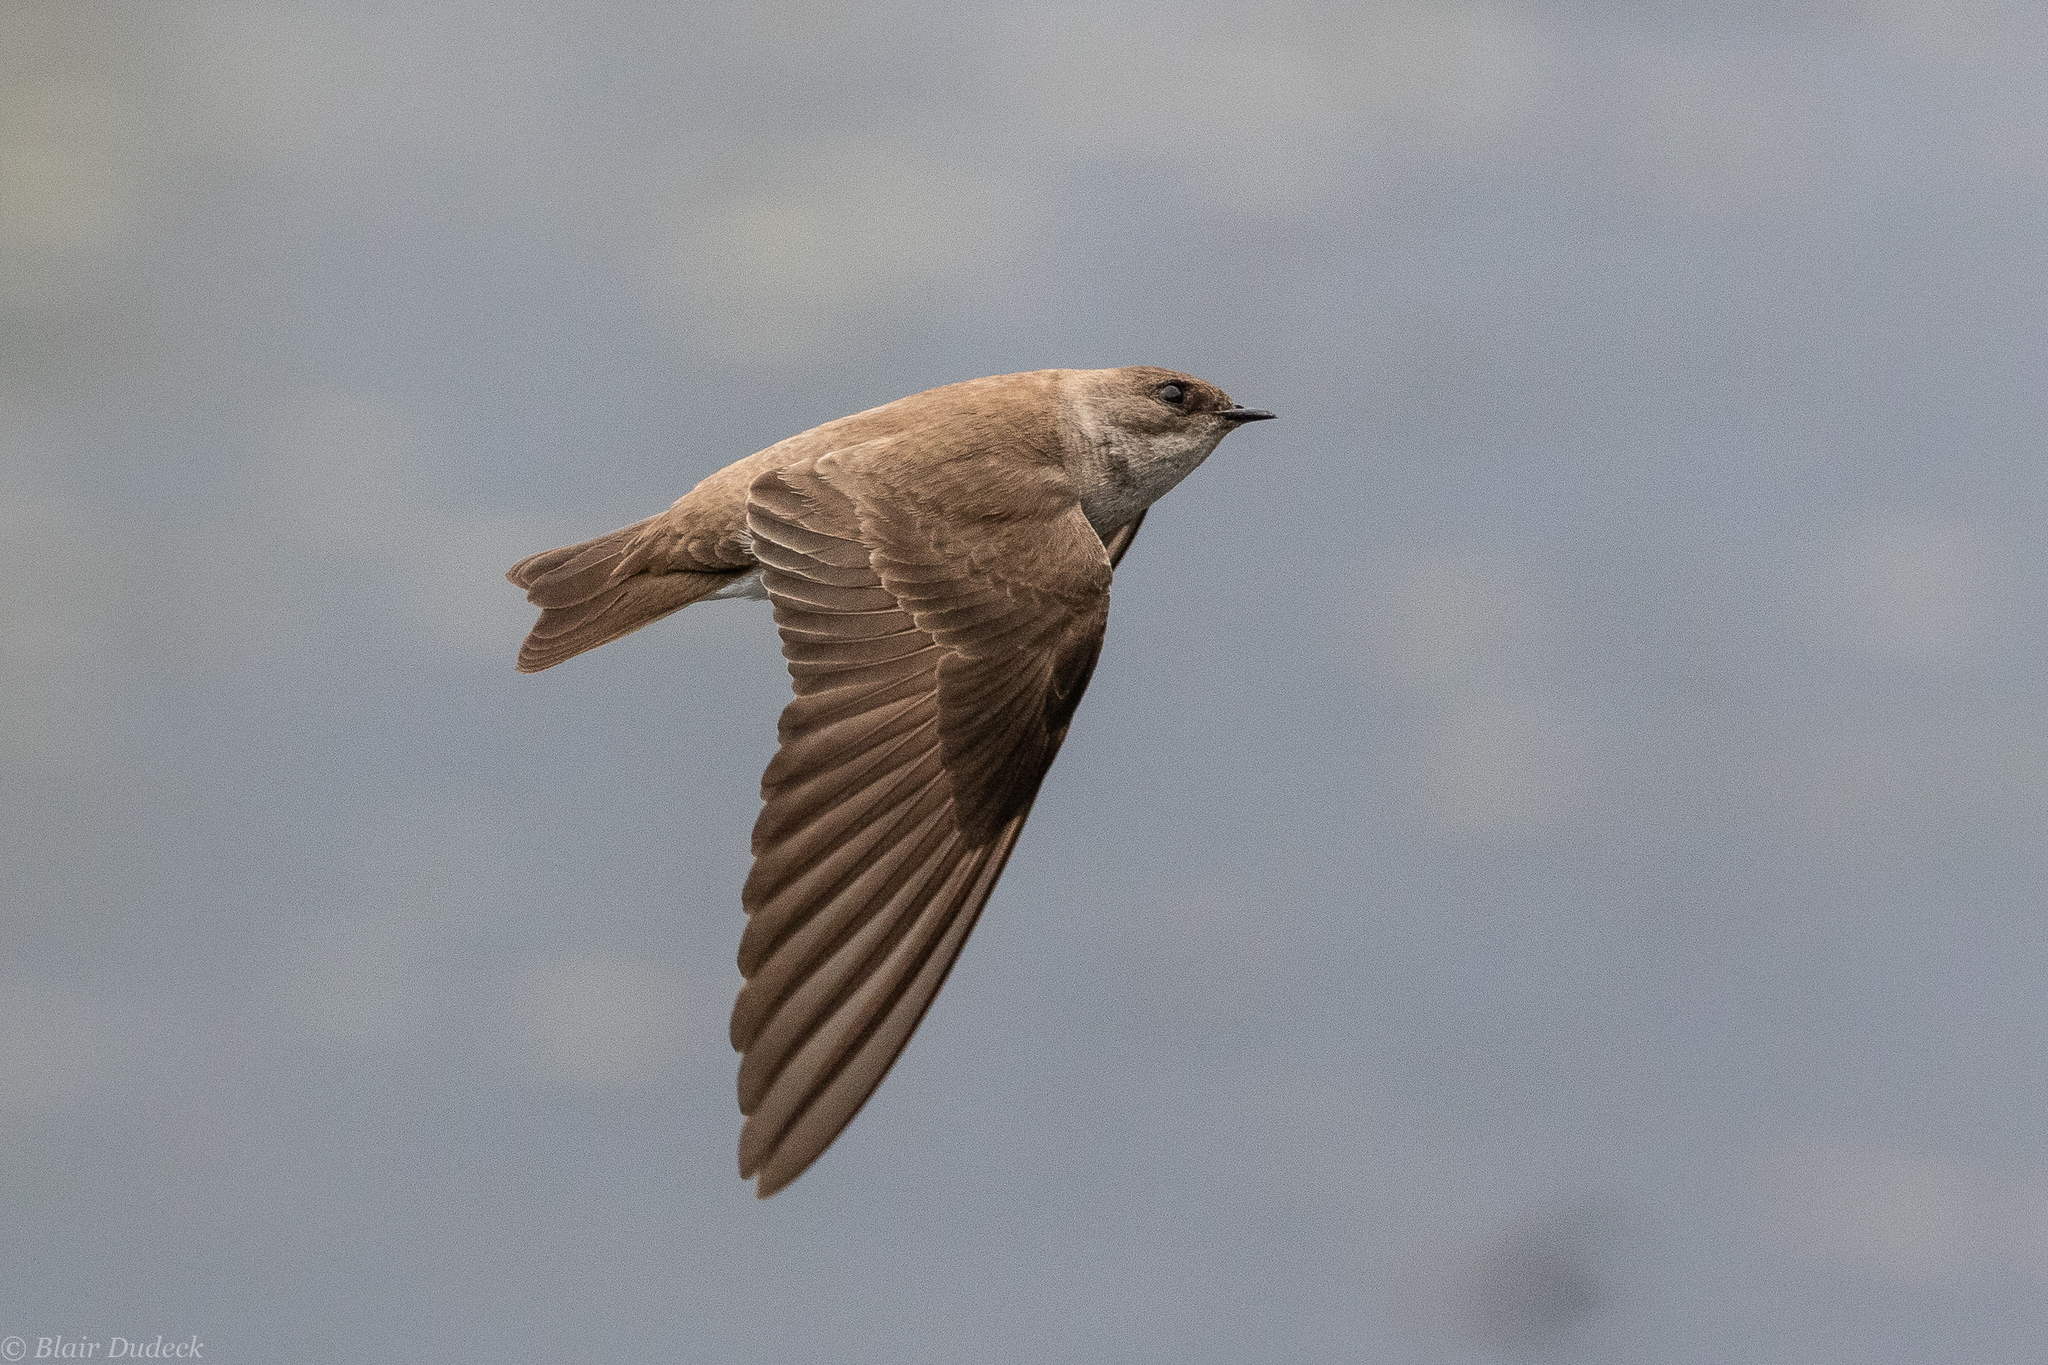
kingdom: Animalia
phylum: Chordata
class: Aves
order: Passeriformes
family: Hirundinidae
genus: Stelgidopteryx
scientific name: Stelgidopteryx serripennis
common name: Northern rough-winged swallow
